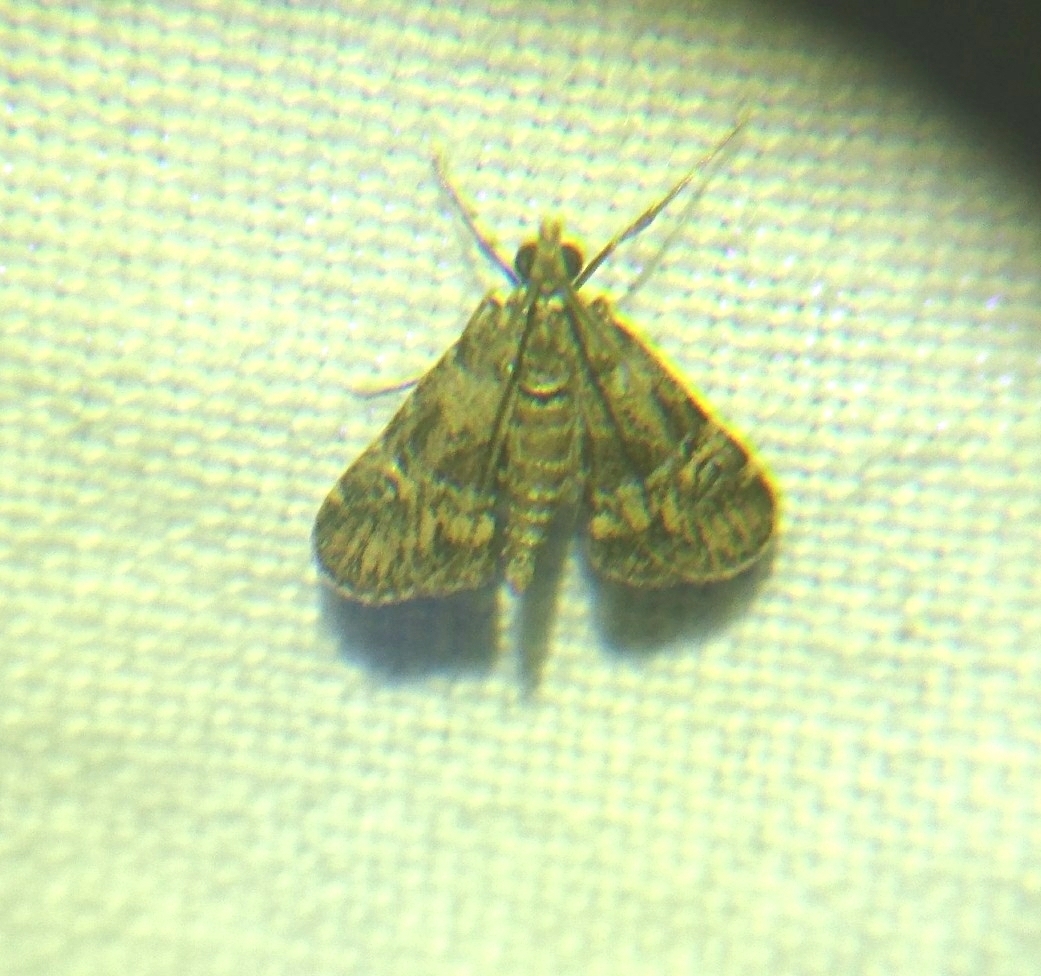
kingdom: Animalia
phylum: Arthropoda
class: Insecta
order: Lepidoptera
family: Crambidae
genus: Elophila
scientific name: Elophila obliteralis
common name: Waterlily leafcutter moth
